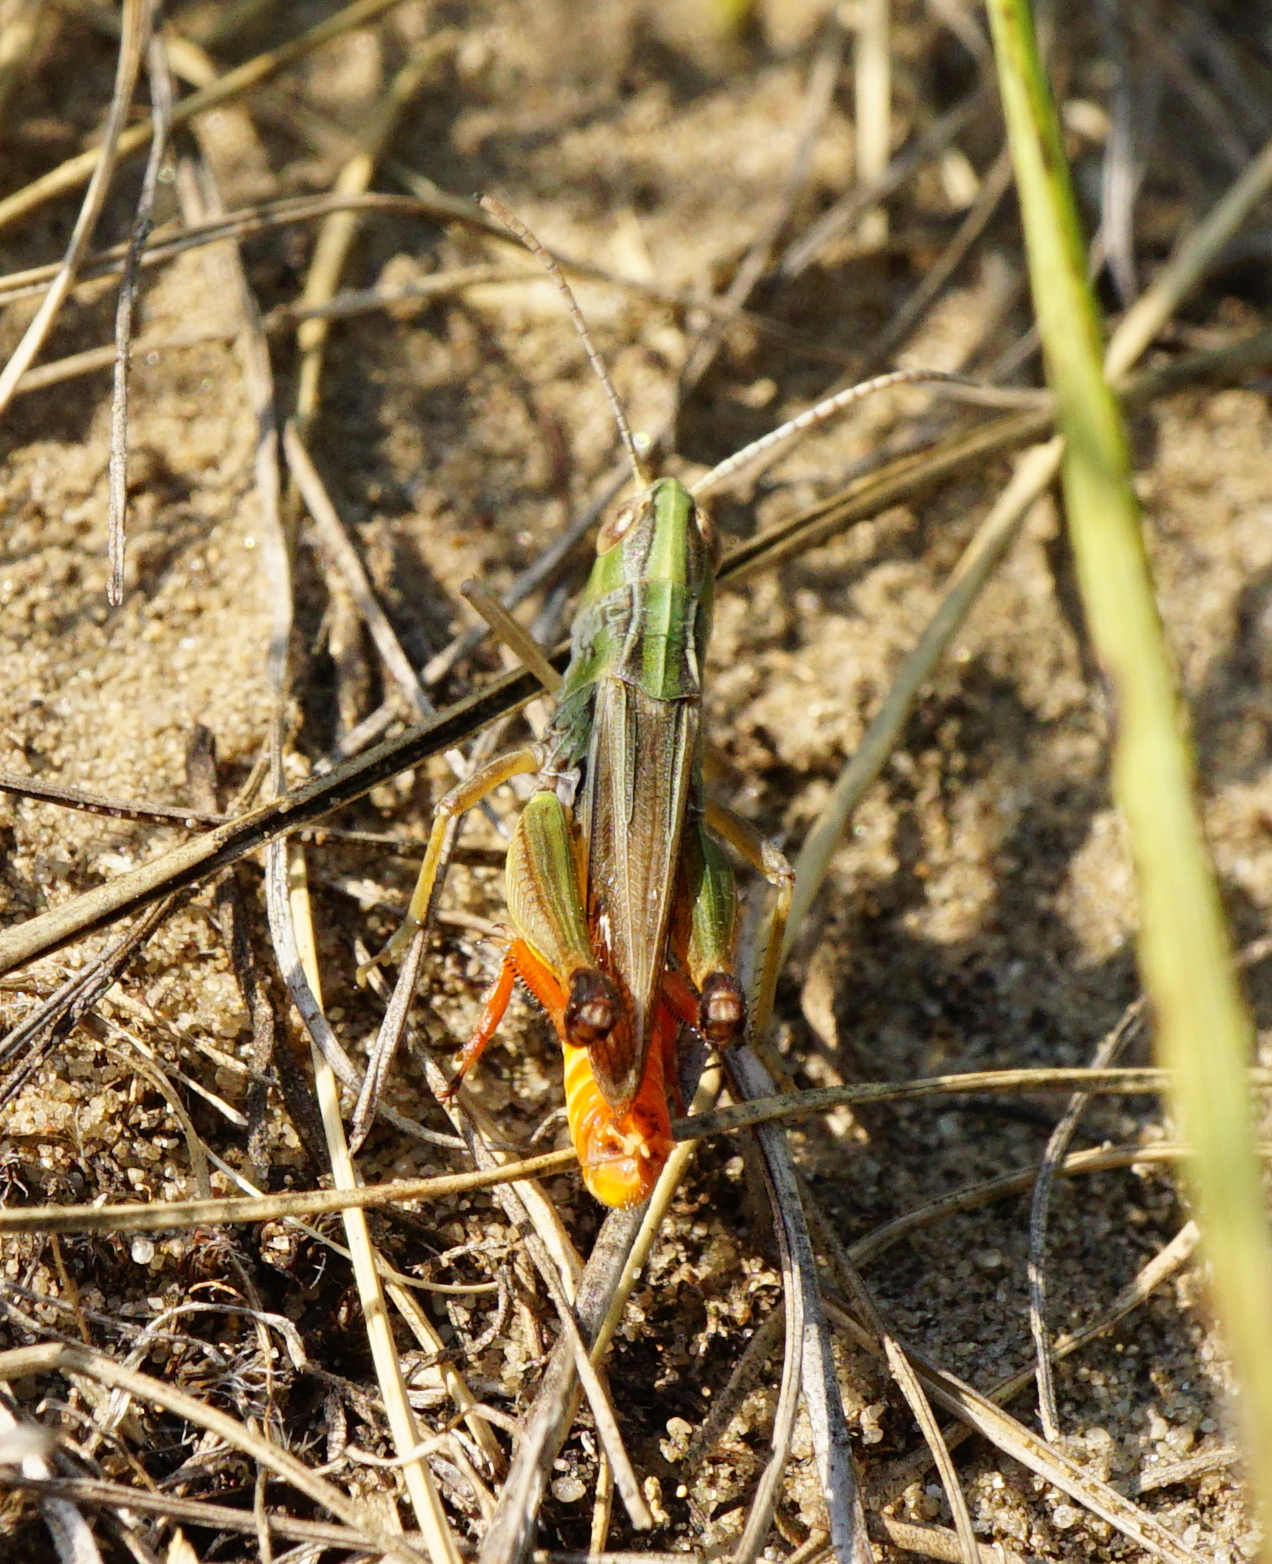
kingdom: Animalia
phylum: Arthropoda
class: Insecta
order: Orthoptera
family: Acrididae
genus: Stenobothrus
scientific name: Stenobothrus fischeri
